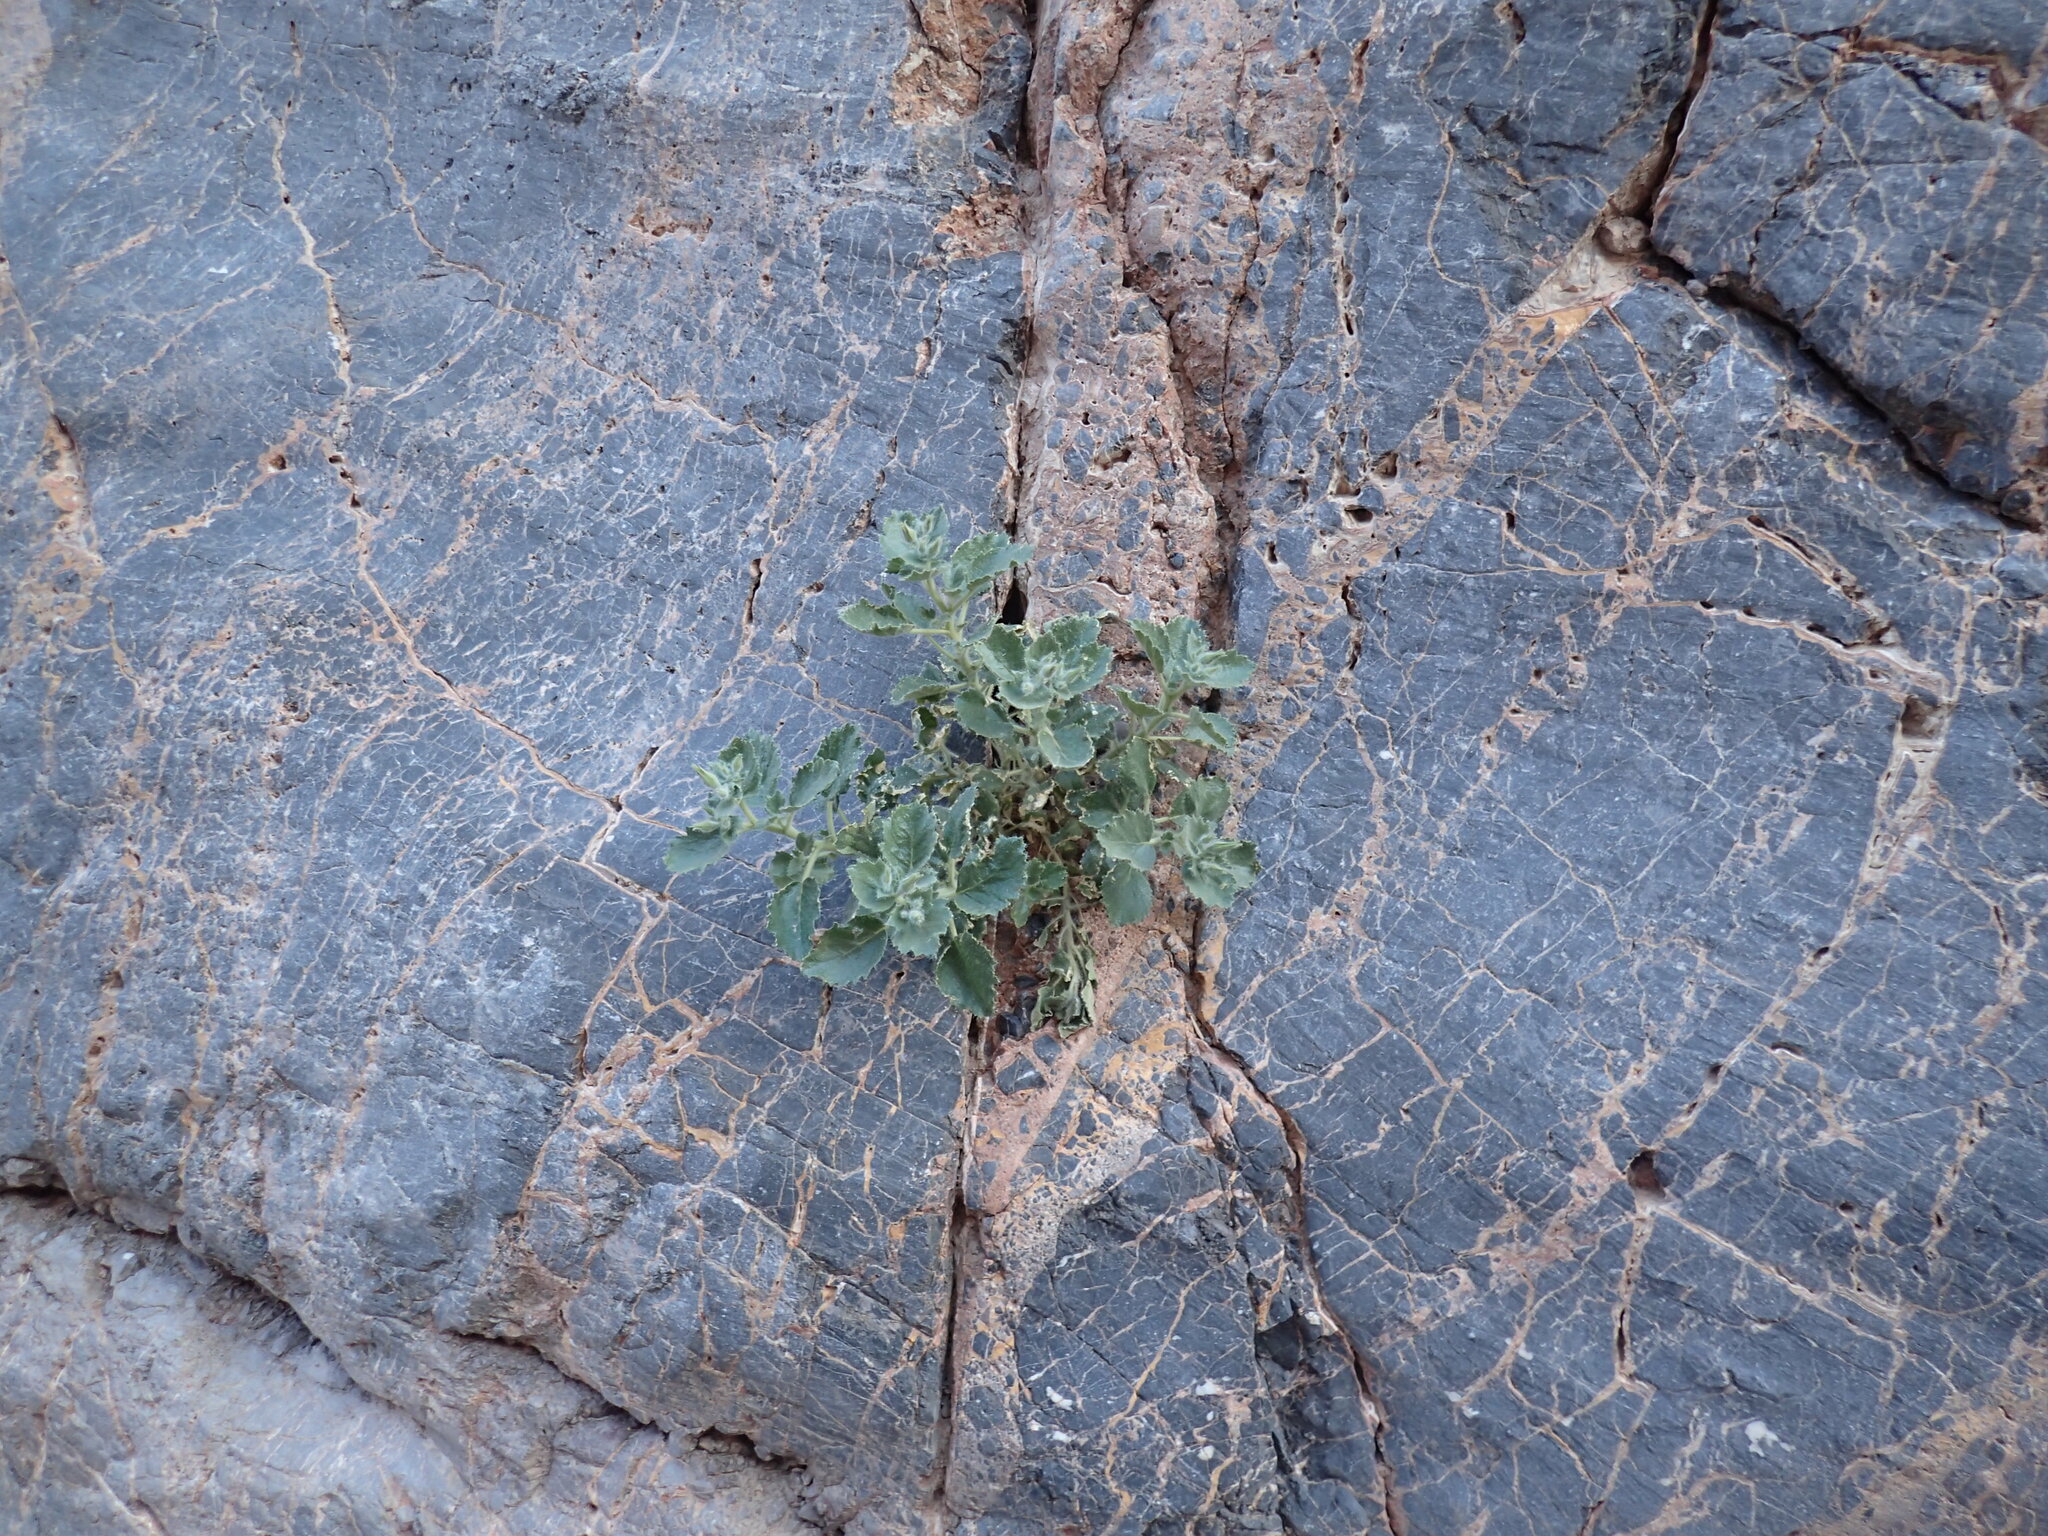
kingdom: Plantae
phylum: Tracheophyta
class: Magnoliopsida
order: Cornales
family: Loasaceae
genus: Eucnide
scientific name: Eucnide urens
